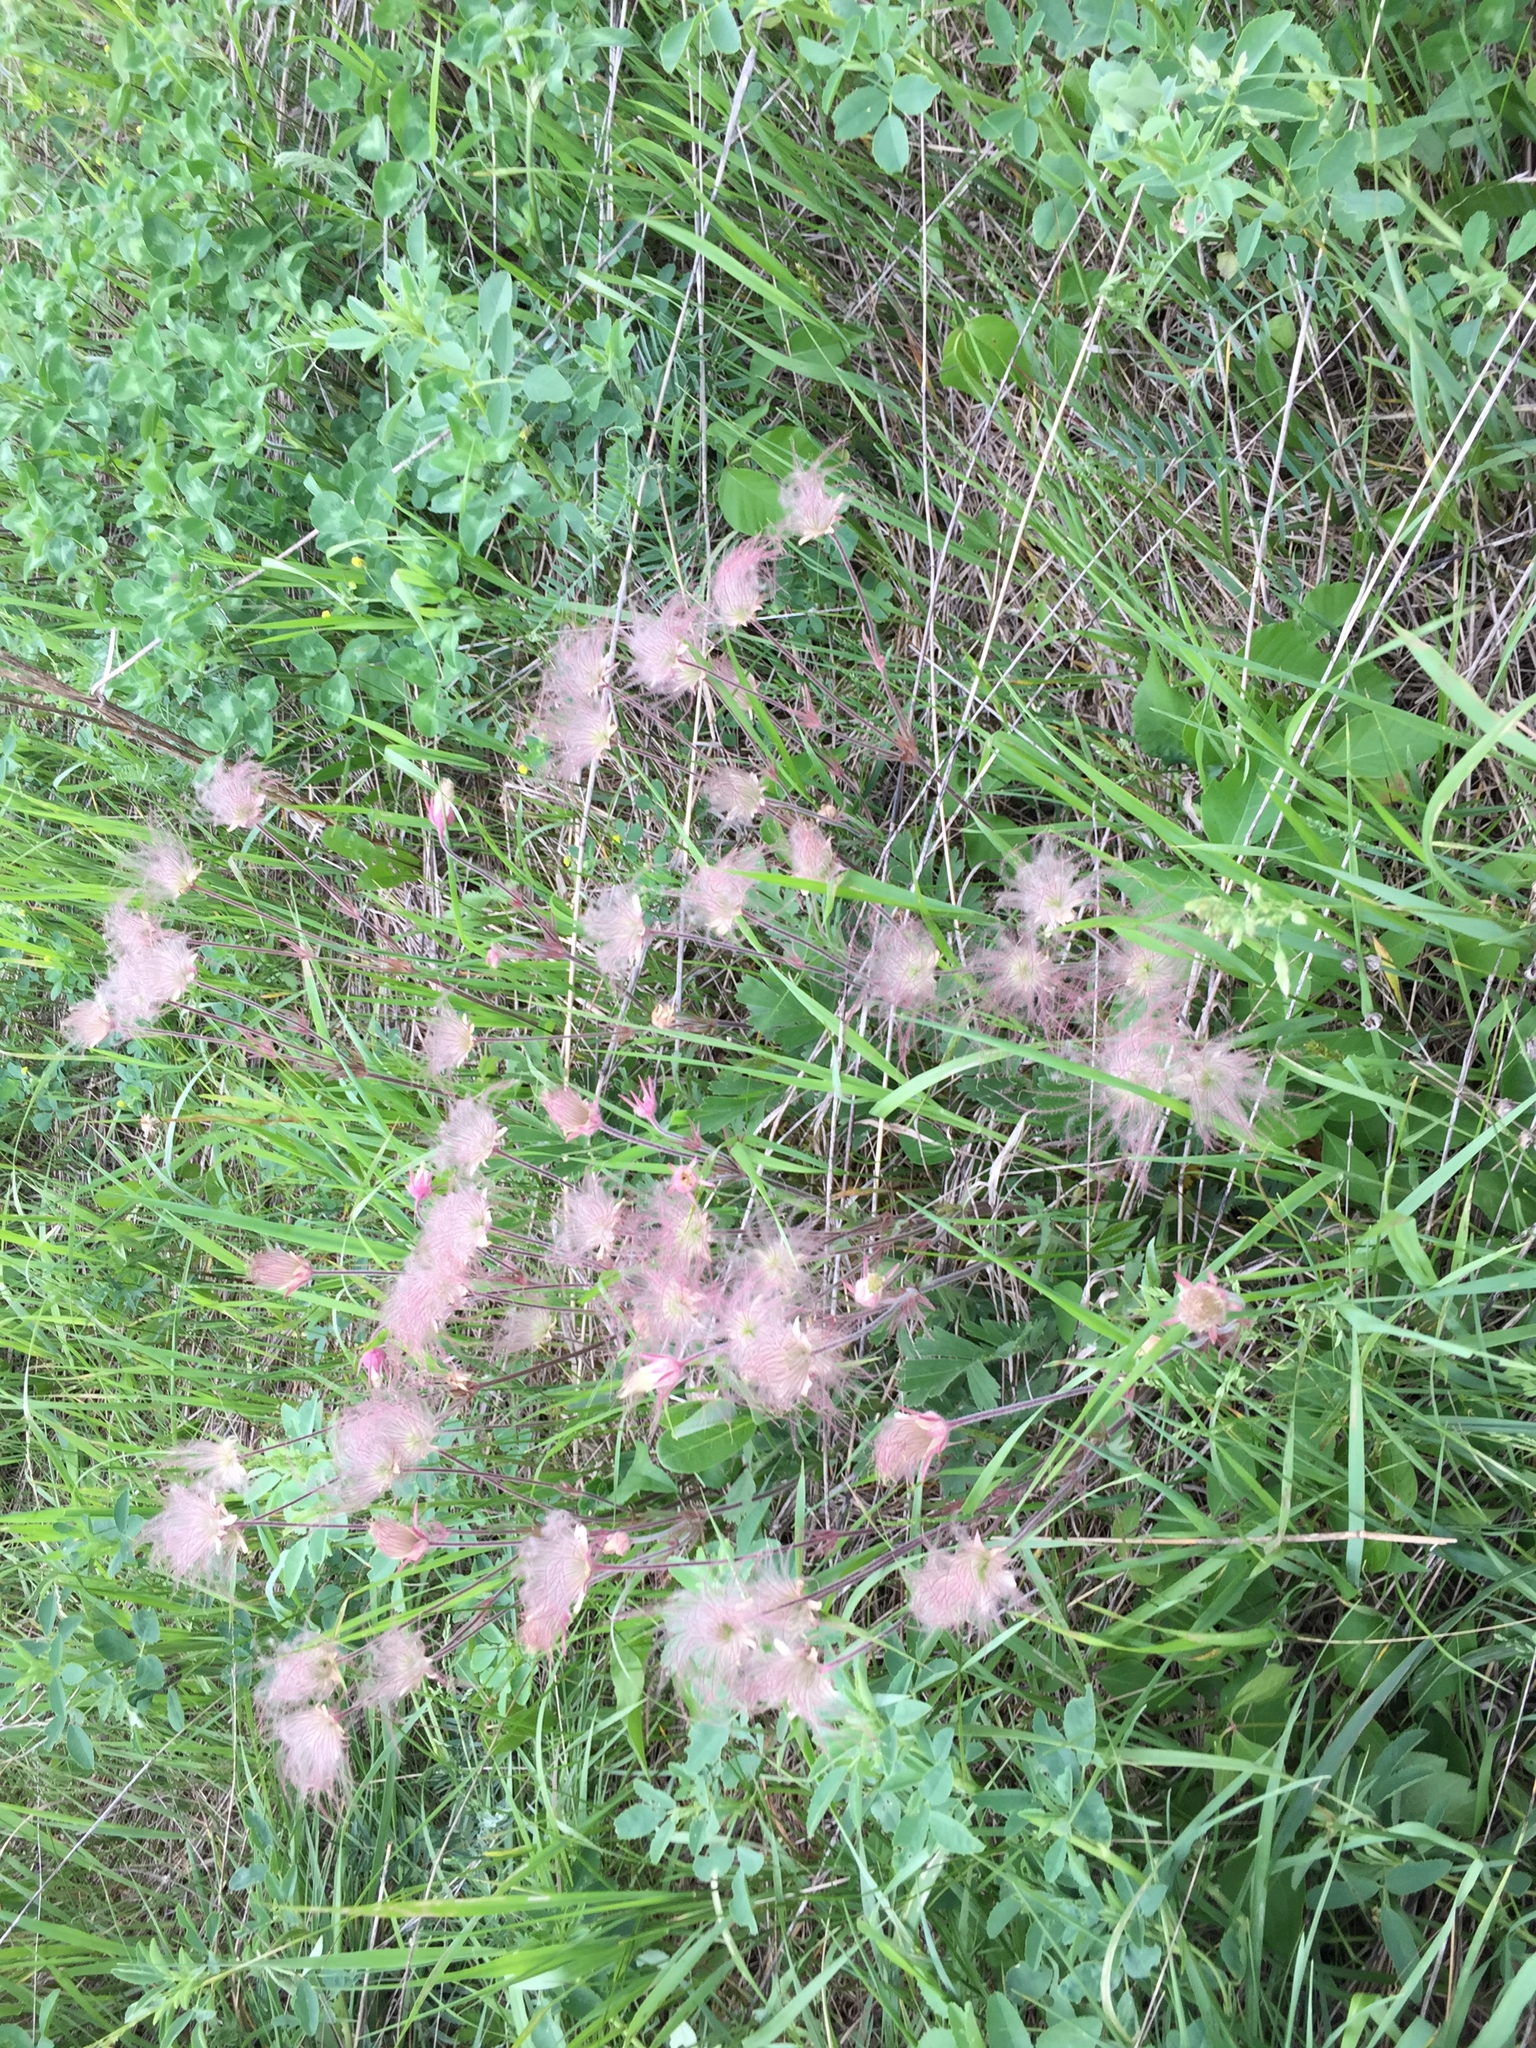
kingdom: Plantae
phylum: Tracheophyta
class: Magnoliopsida
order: Rosales
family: Rosaceae
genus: Geum
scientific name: Geum triflorum
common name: Old man's whiskers
